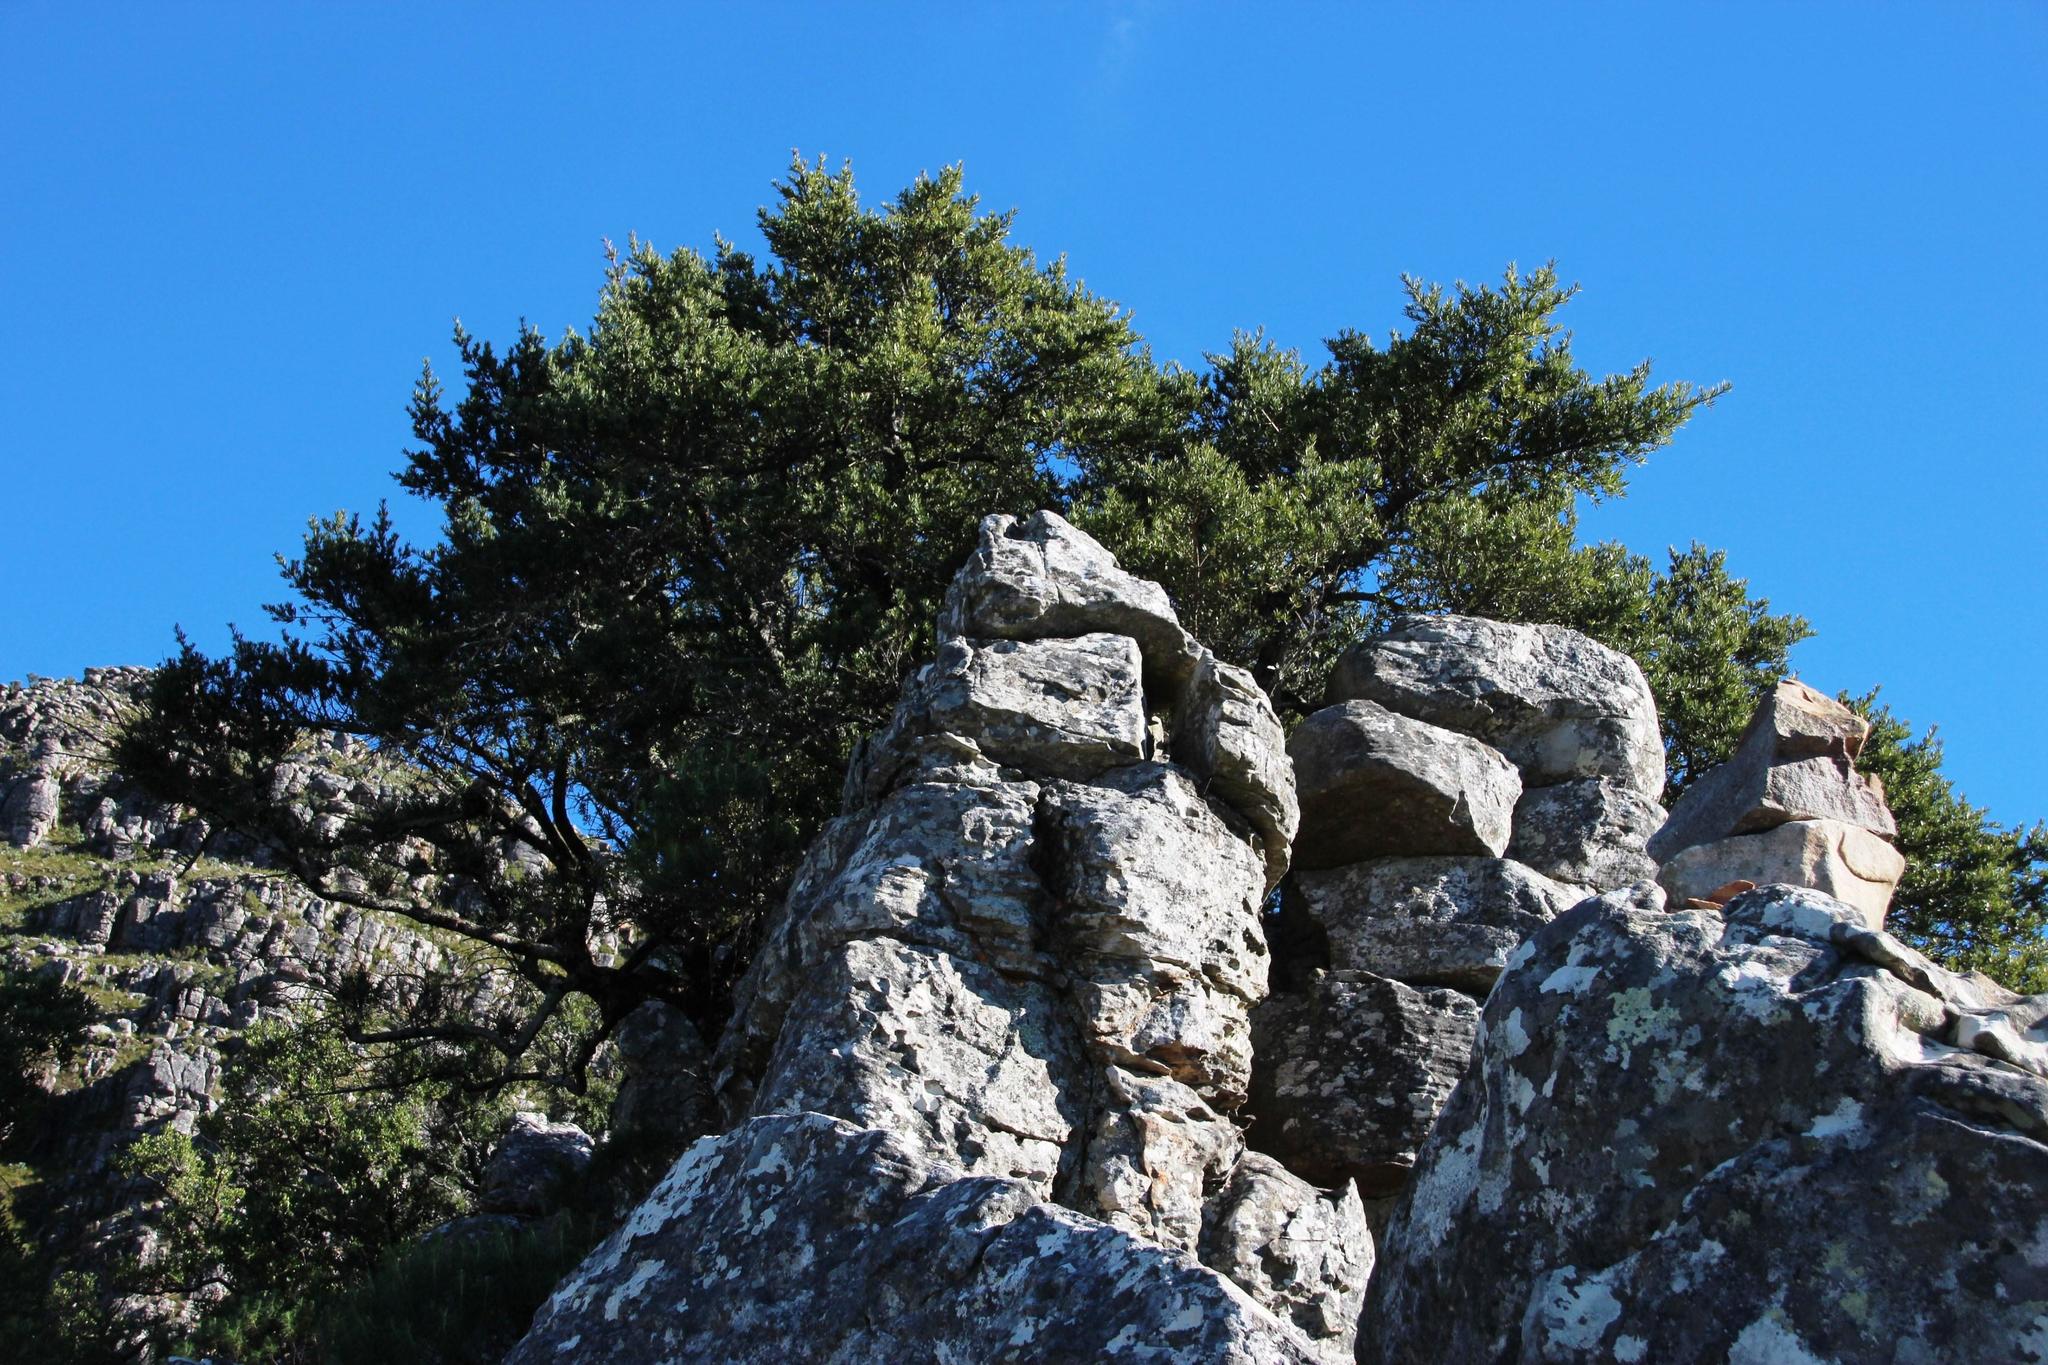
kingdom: Plantae
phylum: Tracheophyta
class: Pinopsida
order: Pinales
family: Podocarpaceae
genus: Podocarpus
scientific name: Podocarpus latifolius
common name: True yellowwood
